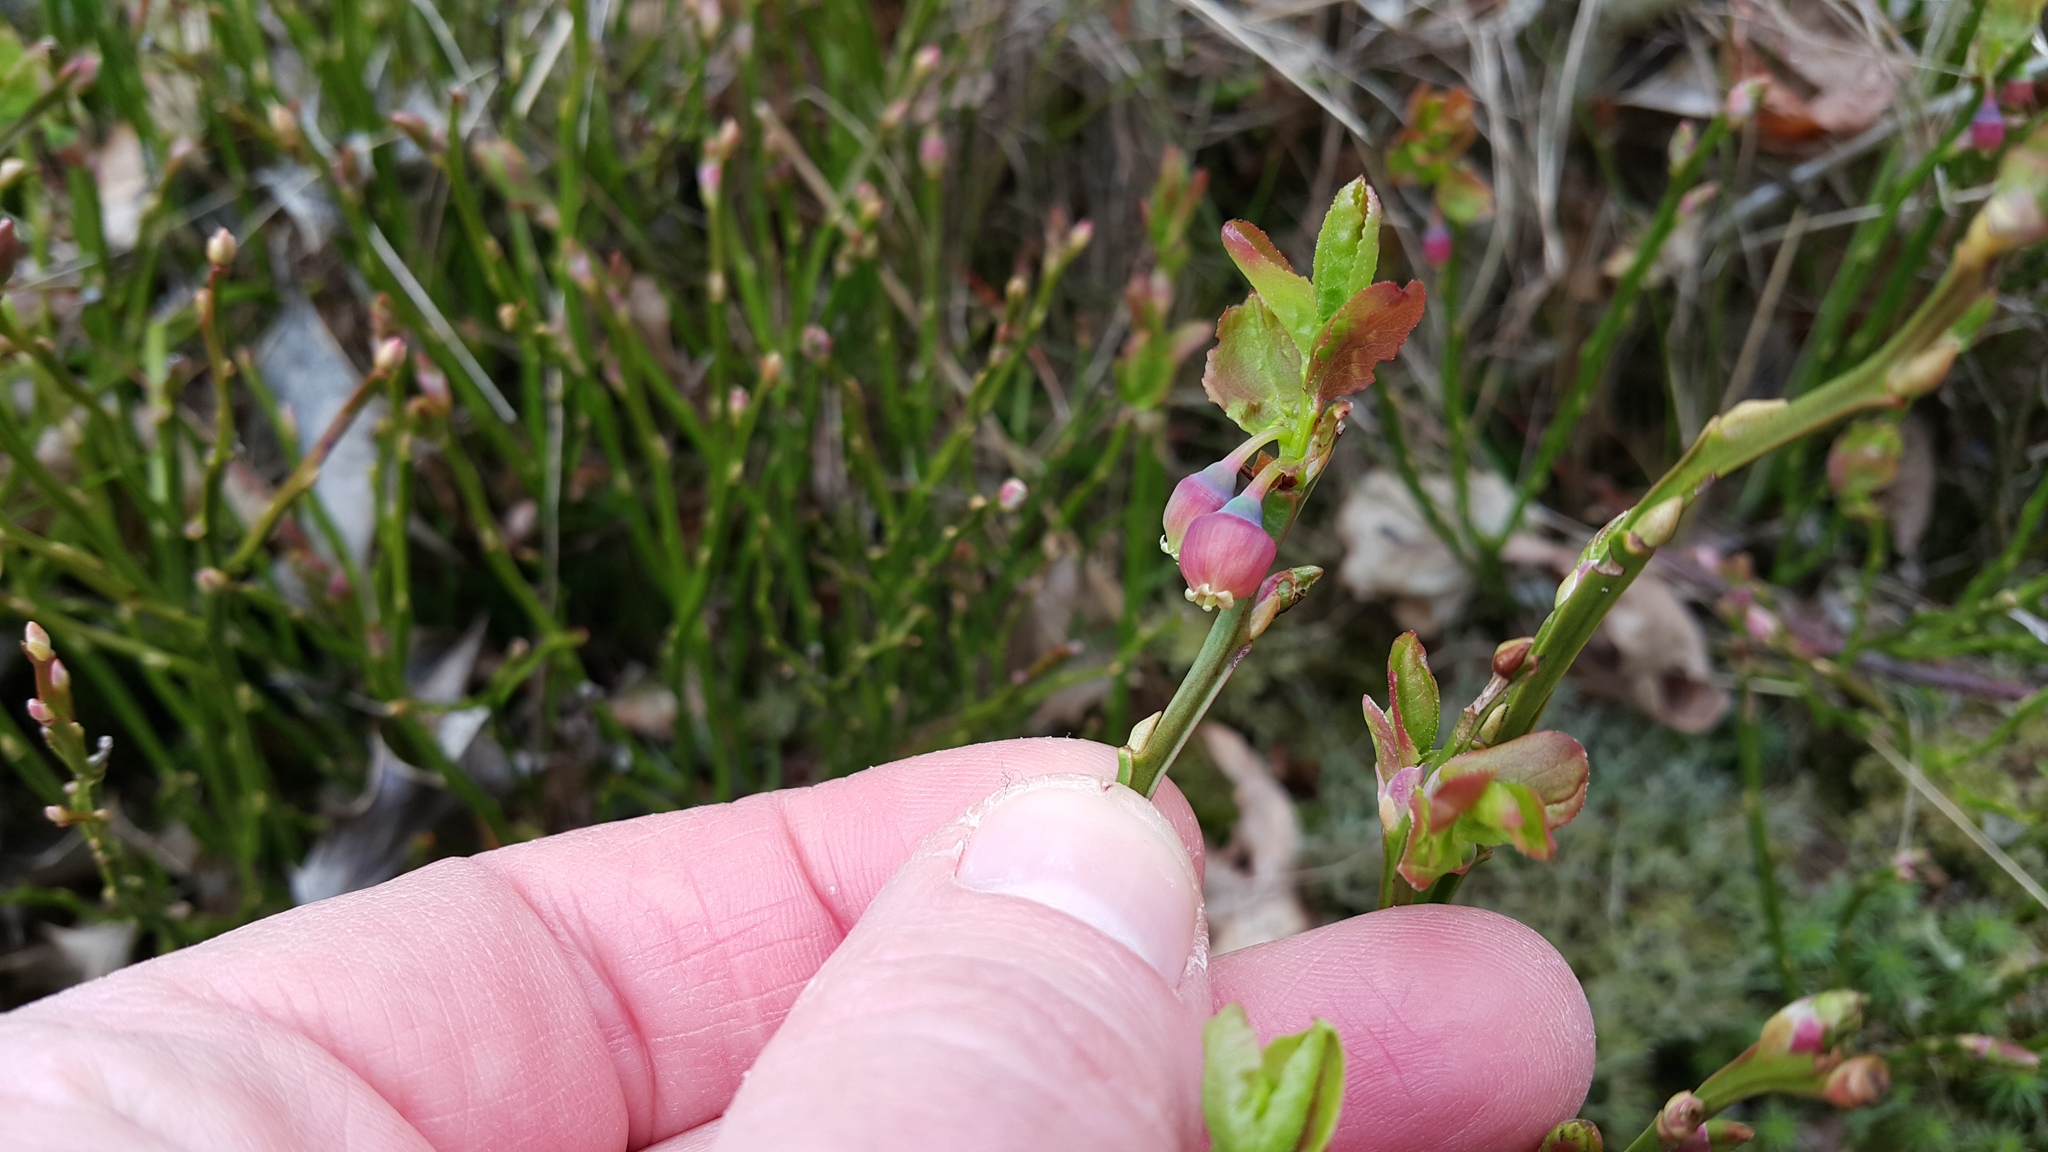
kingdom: Plantae
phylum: Tracheophyta
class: Magnoliopsida
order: Ericales
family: Ericaceae
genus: Vaccinium
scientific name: Vaccinium myrtillus
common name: Bilberry
